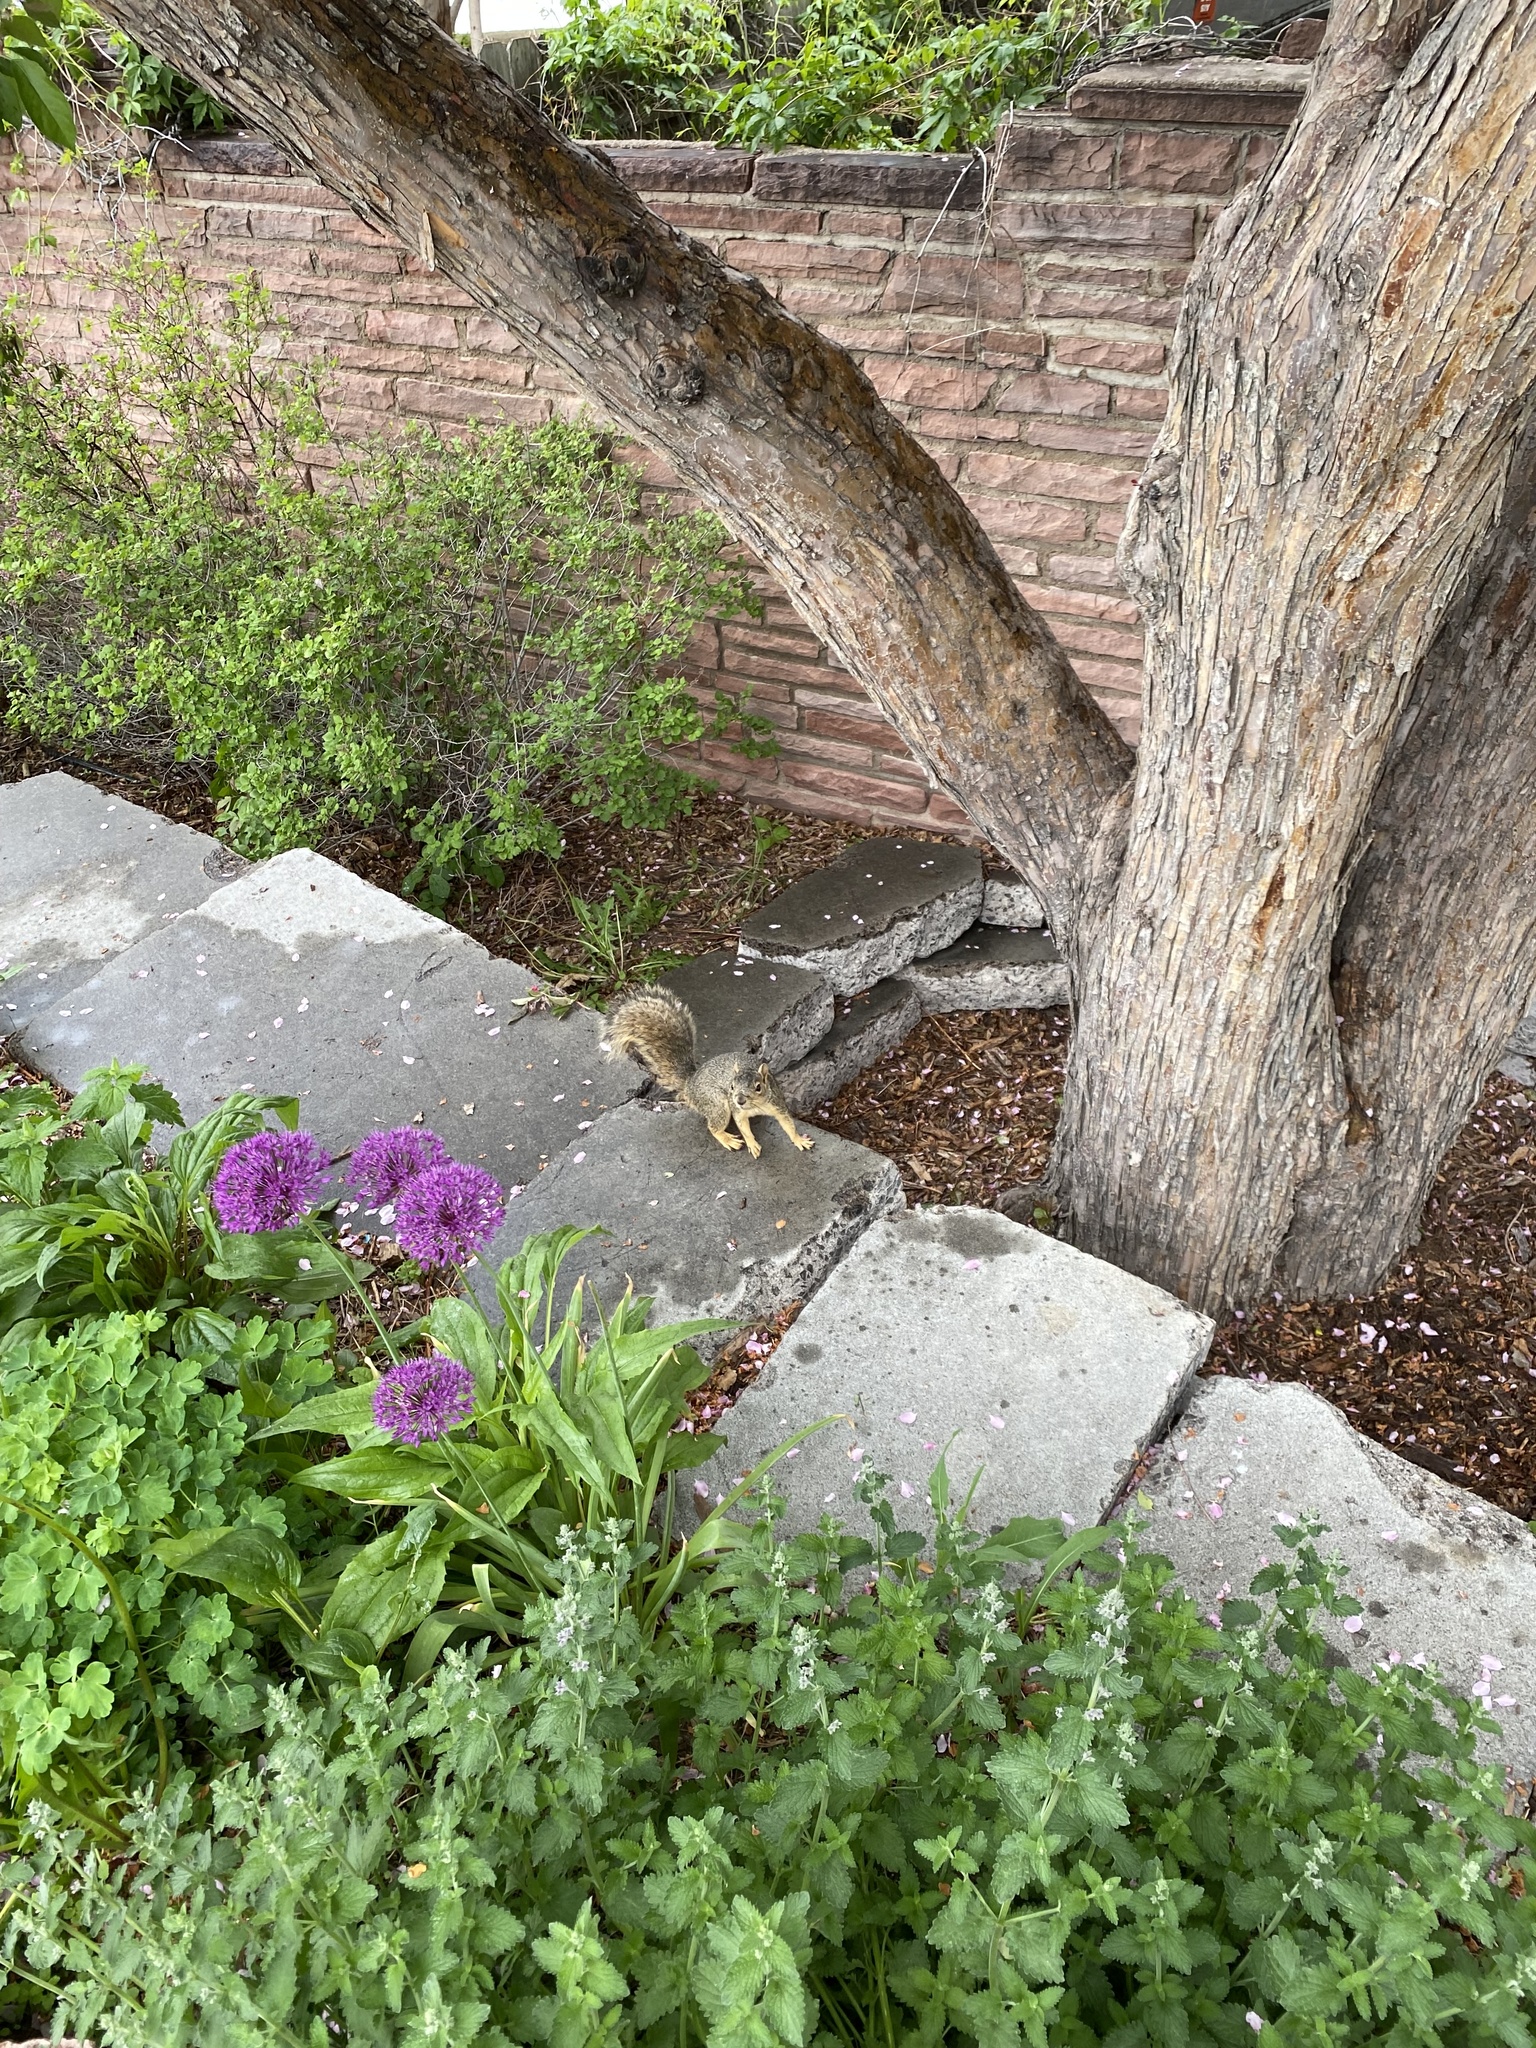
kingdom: Animalia
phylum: Chordata
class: Mammalia
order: Rodentia
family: Sciuridae
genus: Sciurus
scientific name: Sciurus niger
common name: Fox squirrel
